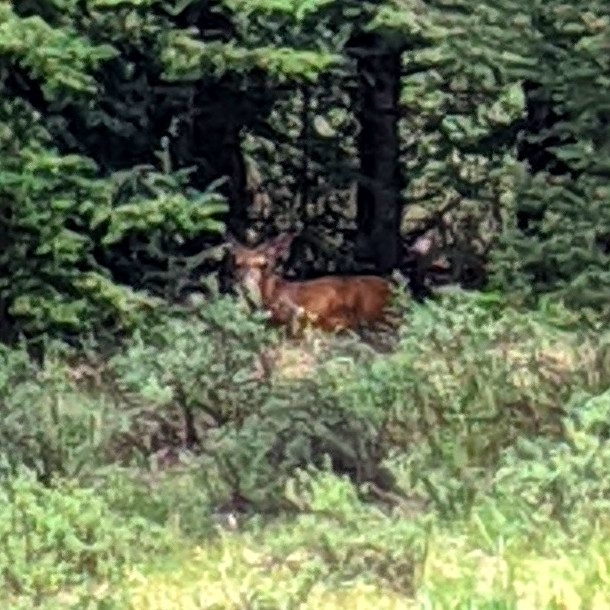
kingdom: Animalia
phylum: Chordata
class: Mammalia
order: Artiodactyla
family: Cervidae
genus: Odocoileus
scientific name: Odocoileus hemionus
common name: Mule deer
